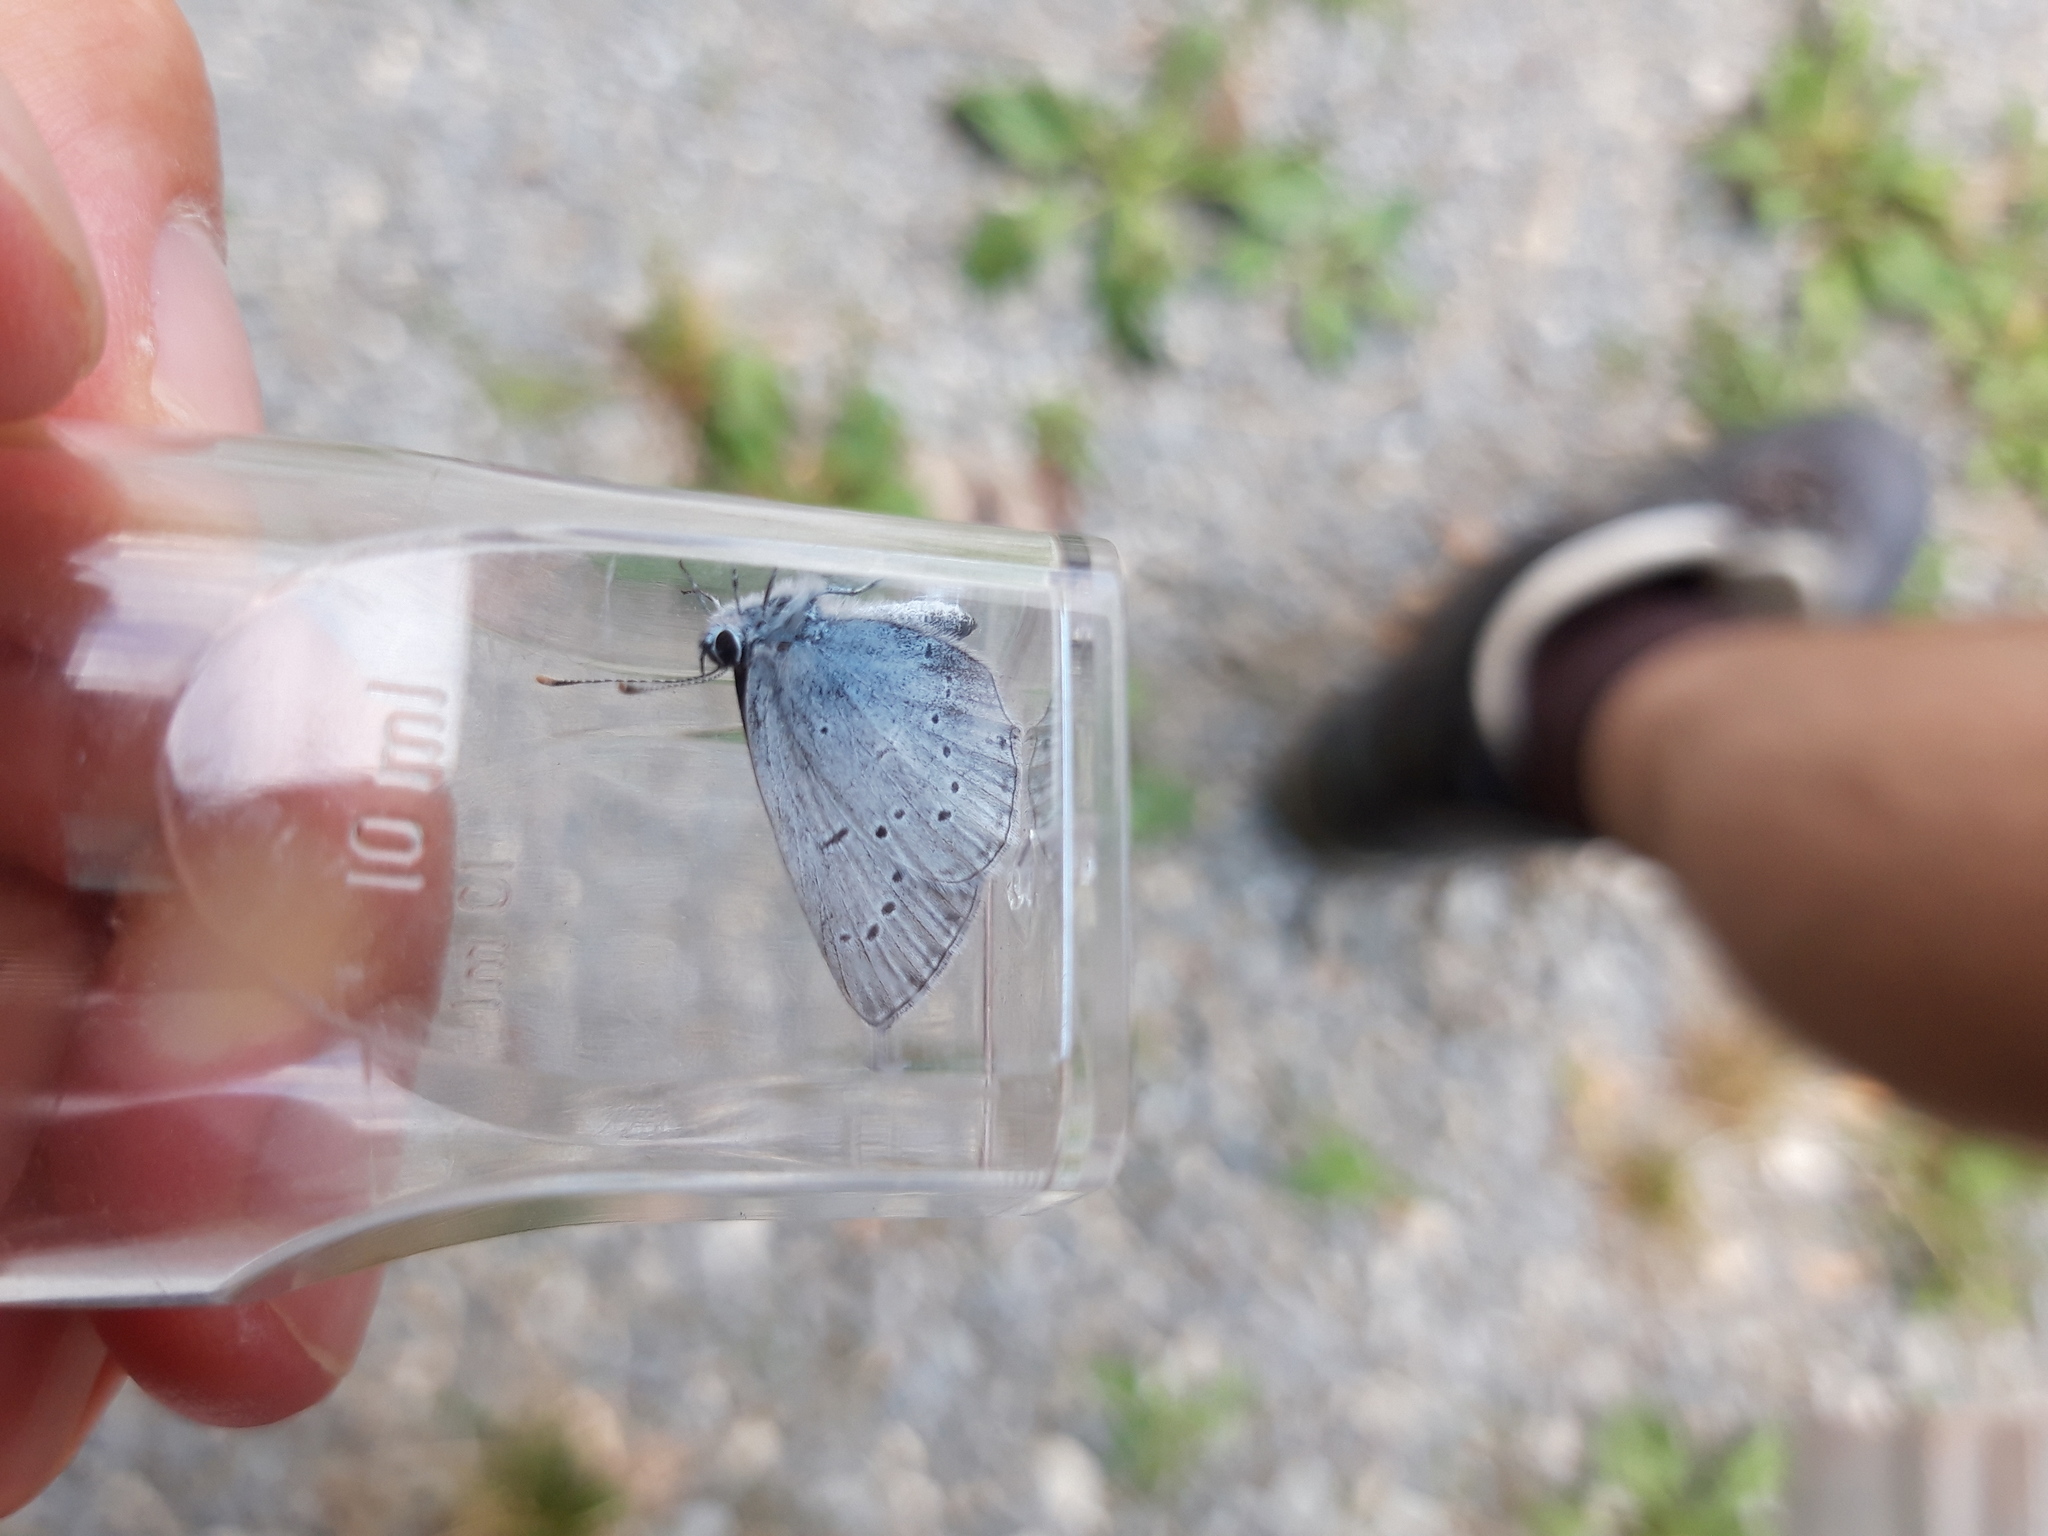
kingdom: Animalia
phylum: Arthropoda
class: Insecta
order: Lepidoptera
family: Lycaenidae
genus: Elkalyce
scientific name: Elkalyce alcetas
